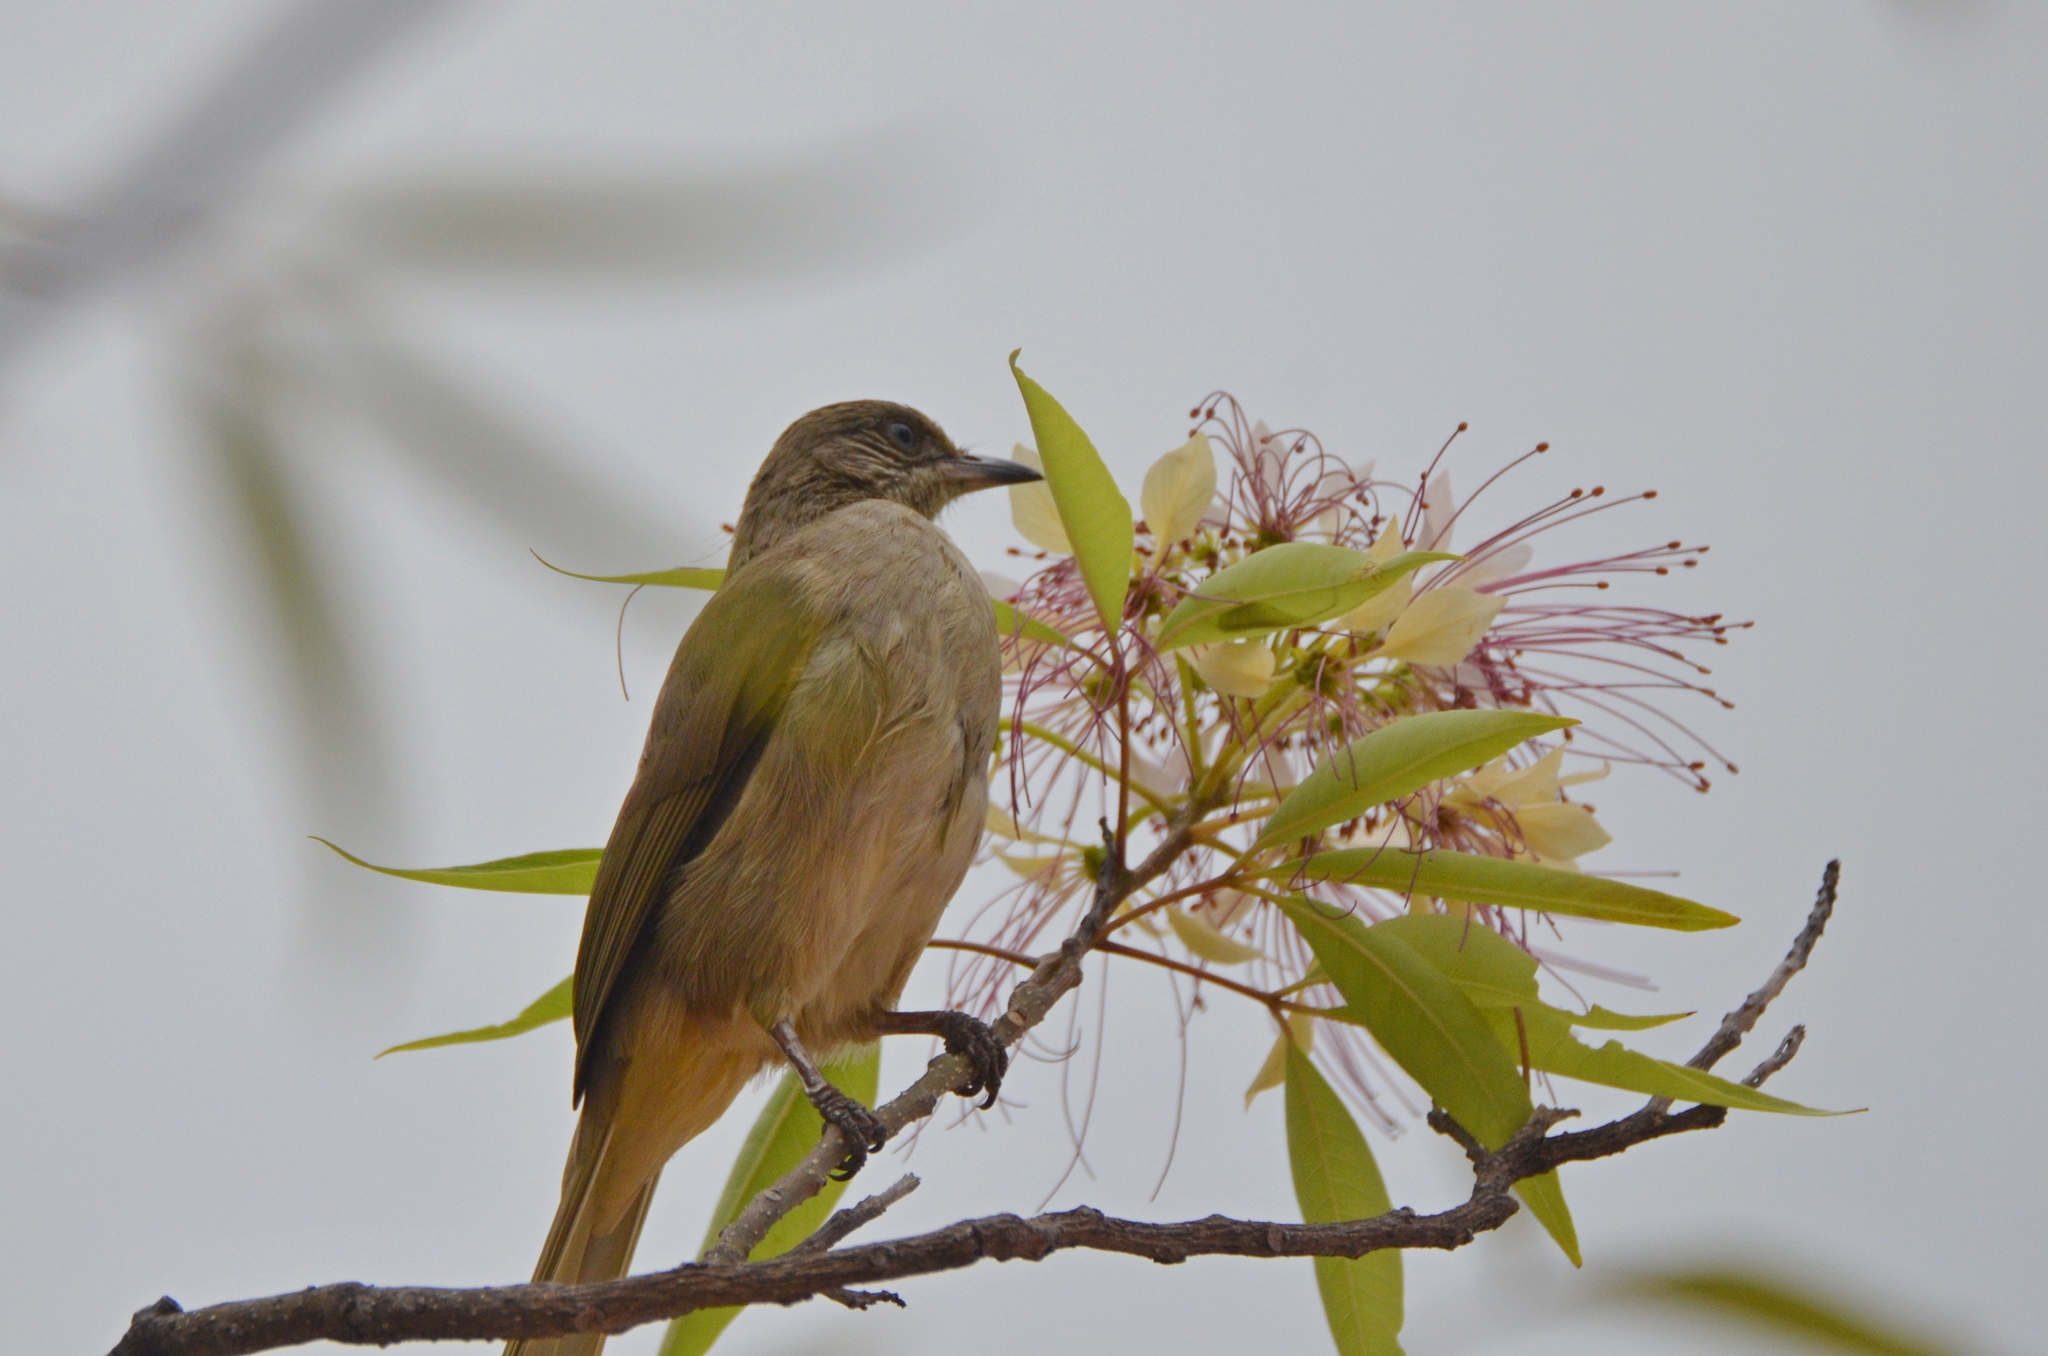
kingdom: Animalia
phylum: Chordata
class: Aves
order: Passeriformes
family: Pycnonotidae
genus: Pycnonotus
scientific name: Pycnonotus blanfordi
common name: Streak-eared bulbul
